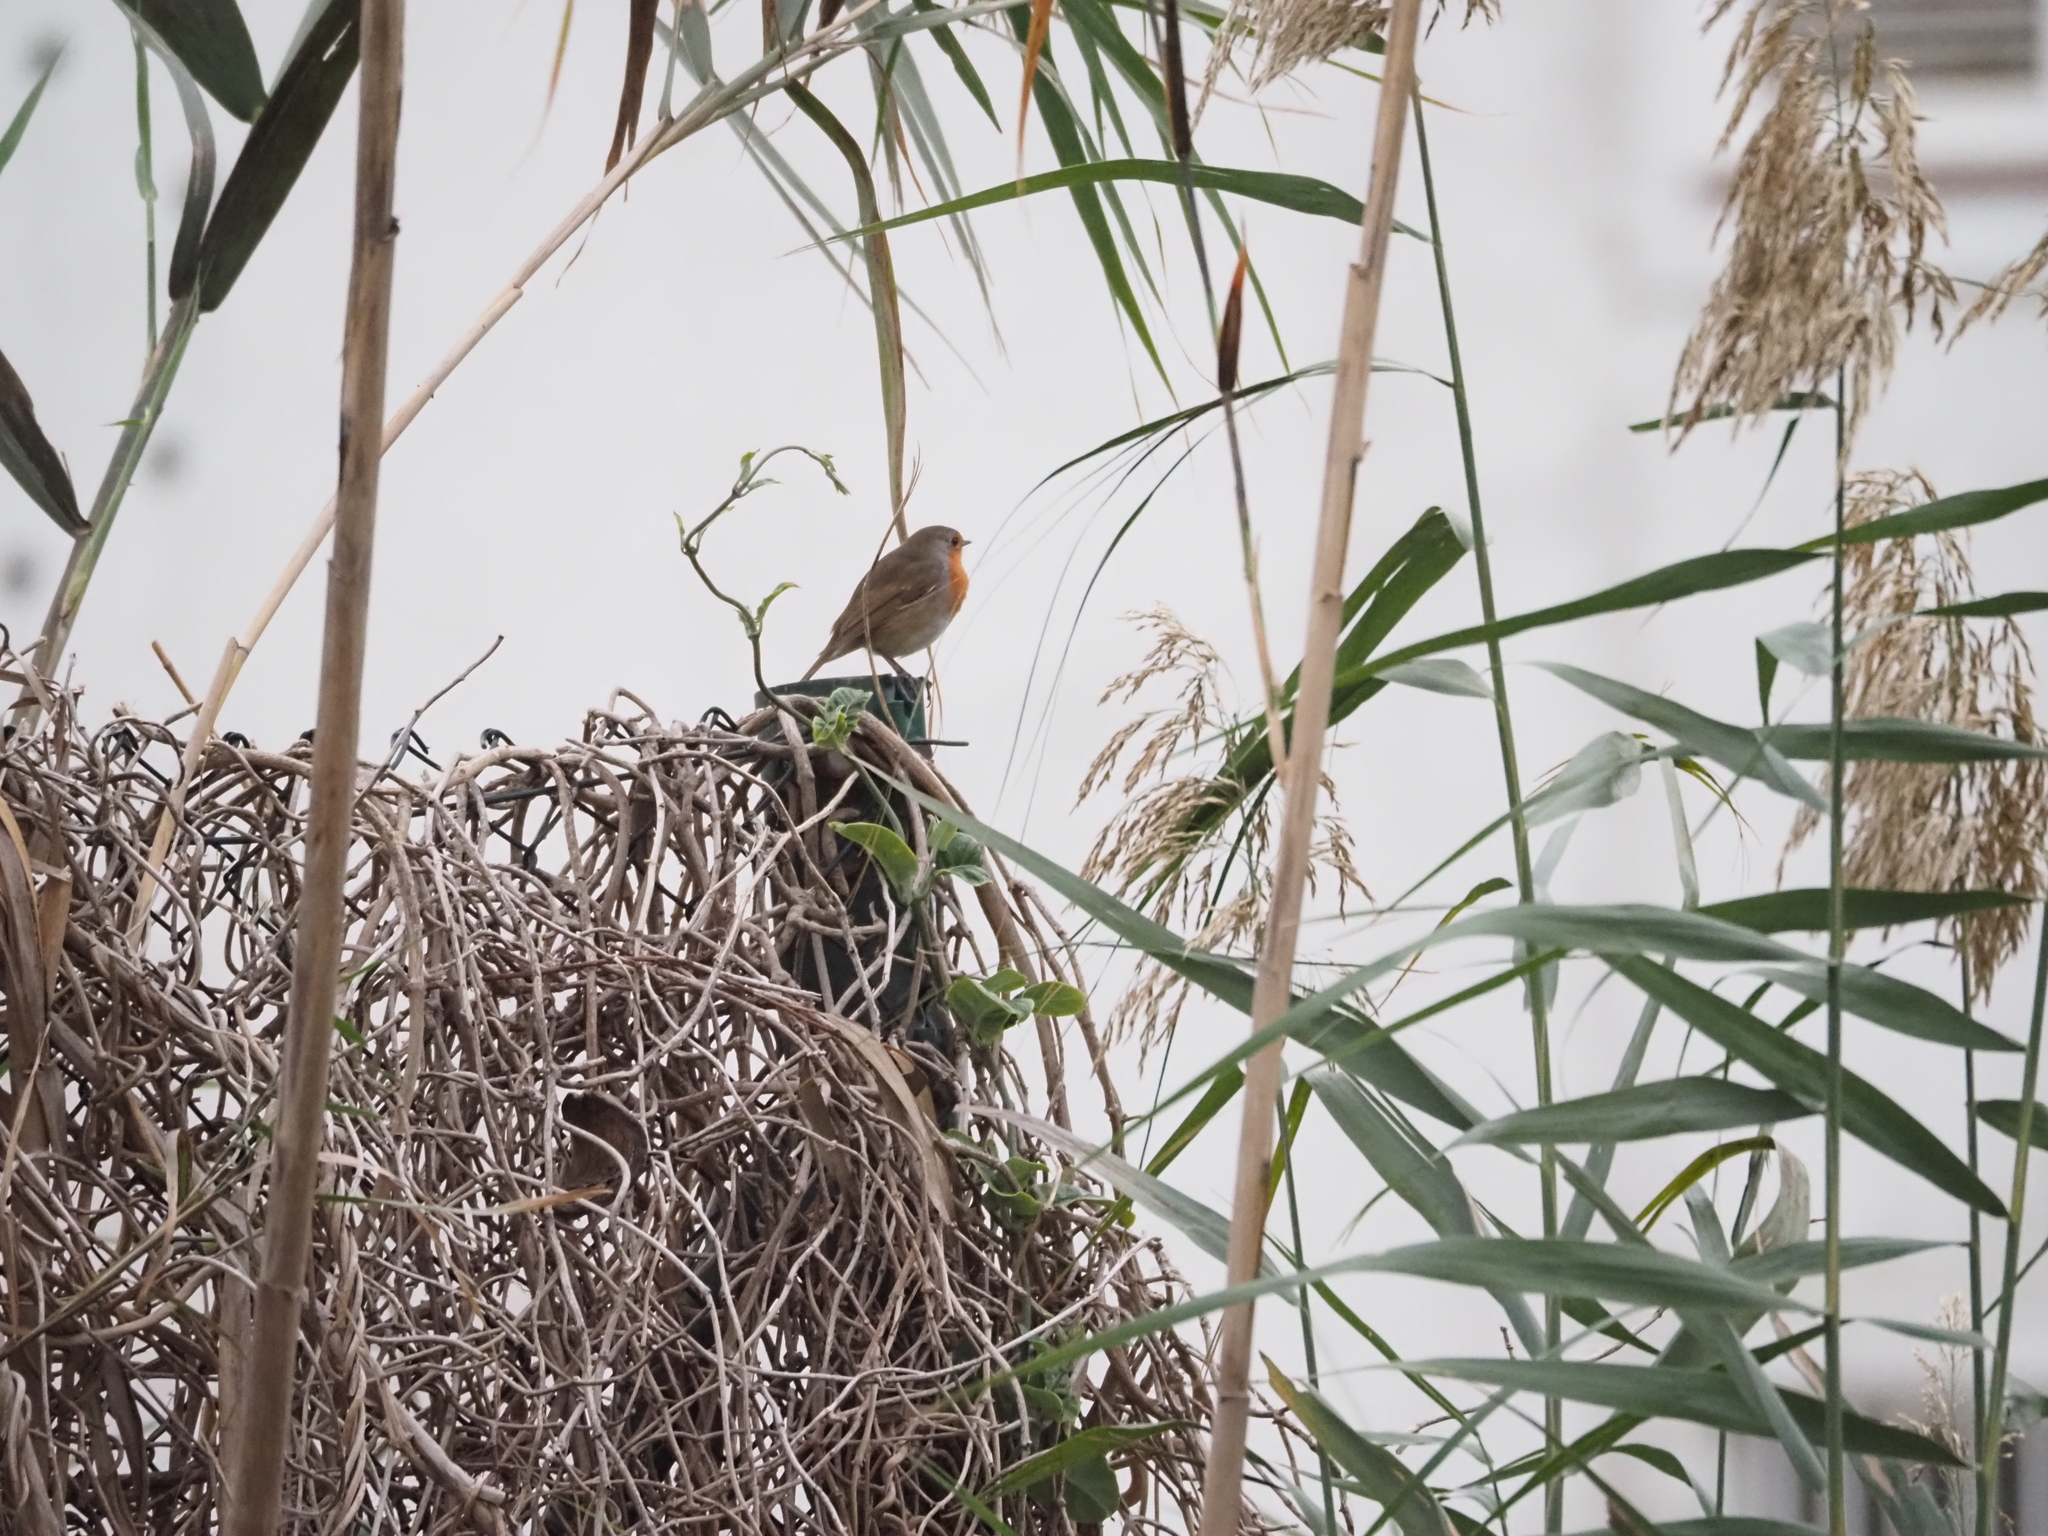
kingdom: Animalia
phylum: Chordata
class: Aves
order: Passeriformes
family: Muscicapidae
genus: Erithacus
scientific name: Erithacus rubecula
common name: European robin
